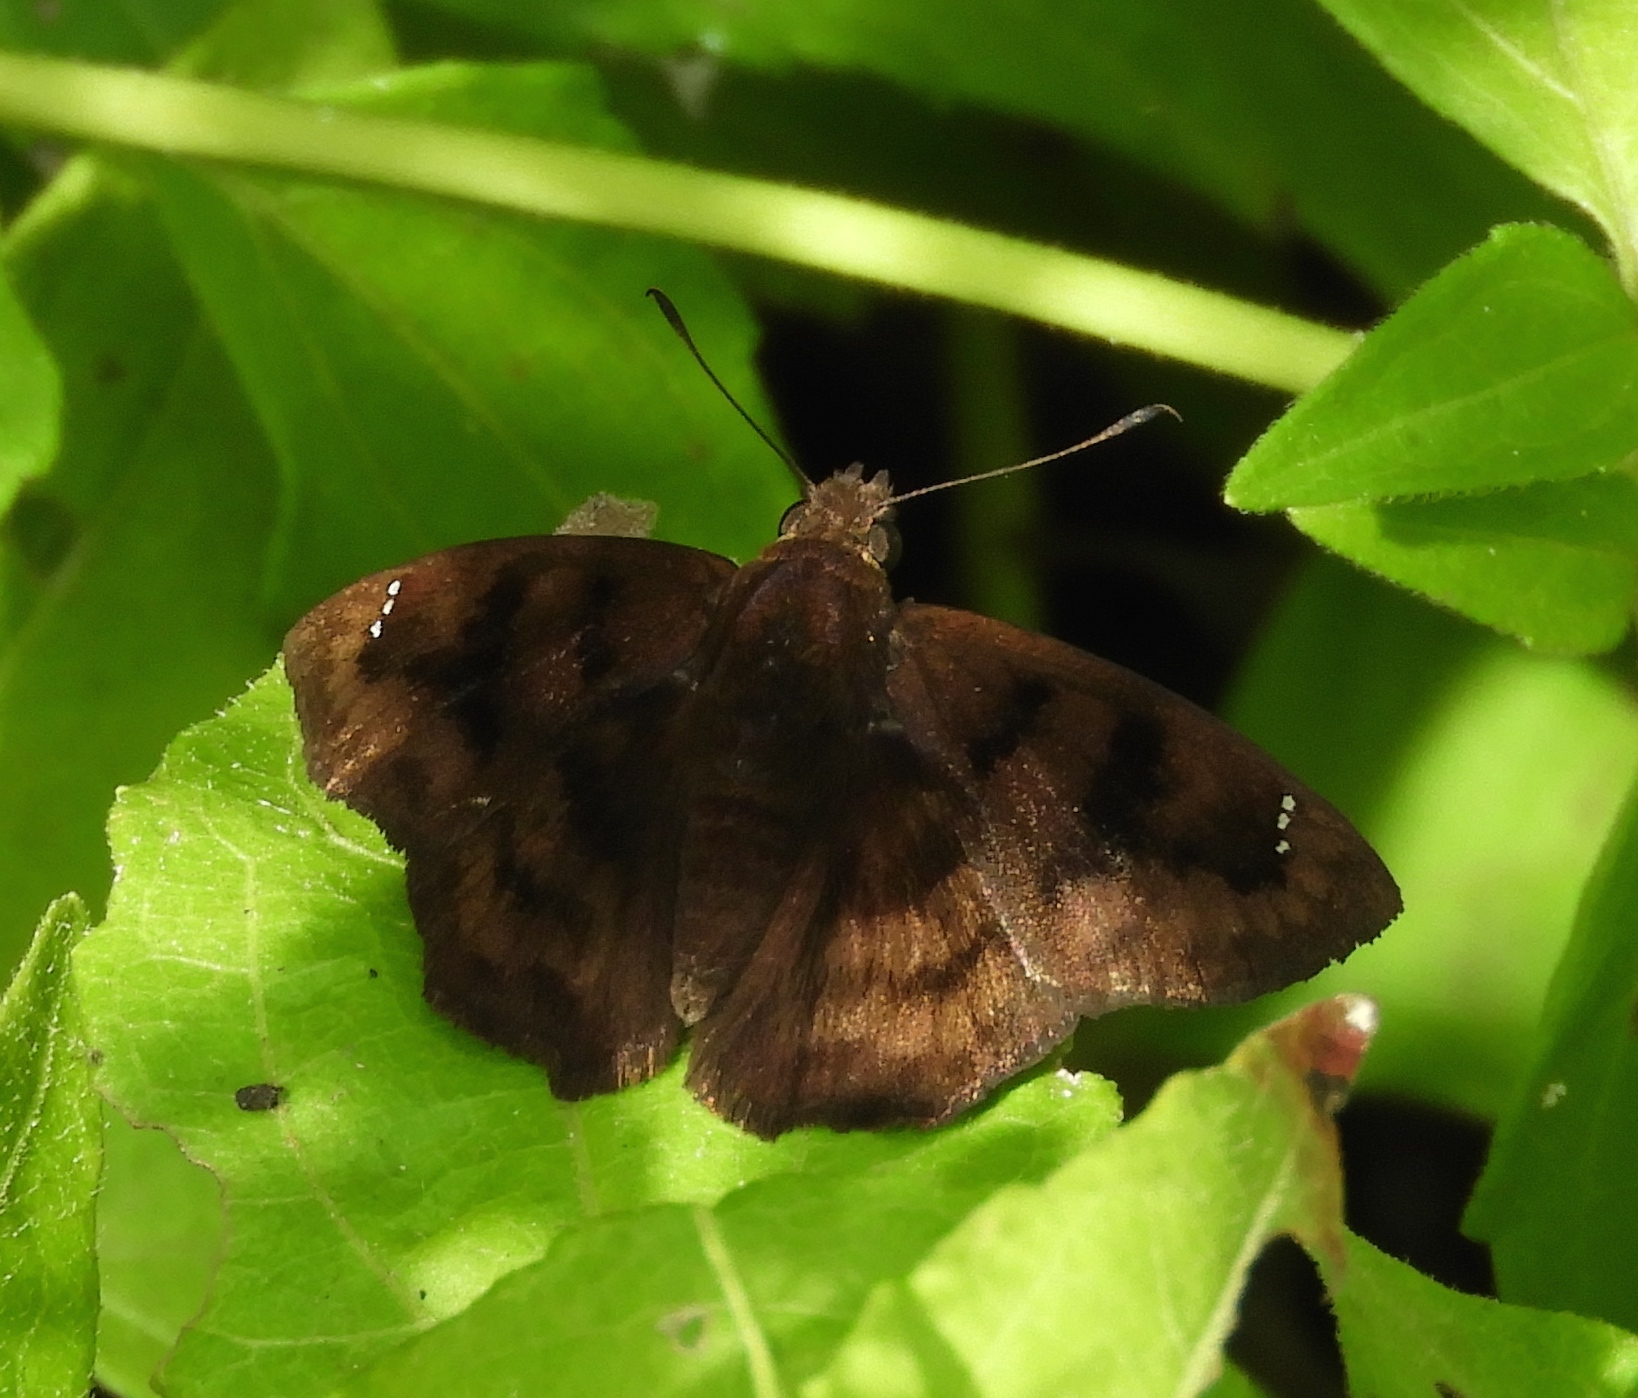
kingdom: Animalia
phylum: Arthropoda
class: Insecta
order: Lepidoptera
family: Hesperiidae
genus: Nisoniades
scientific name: Nisoniades
